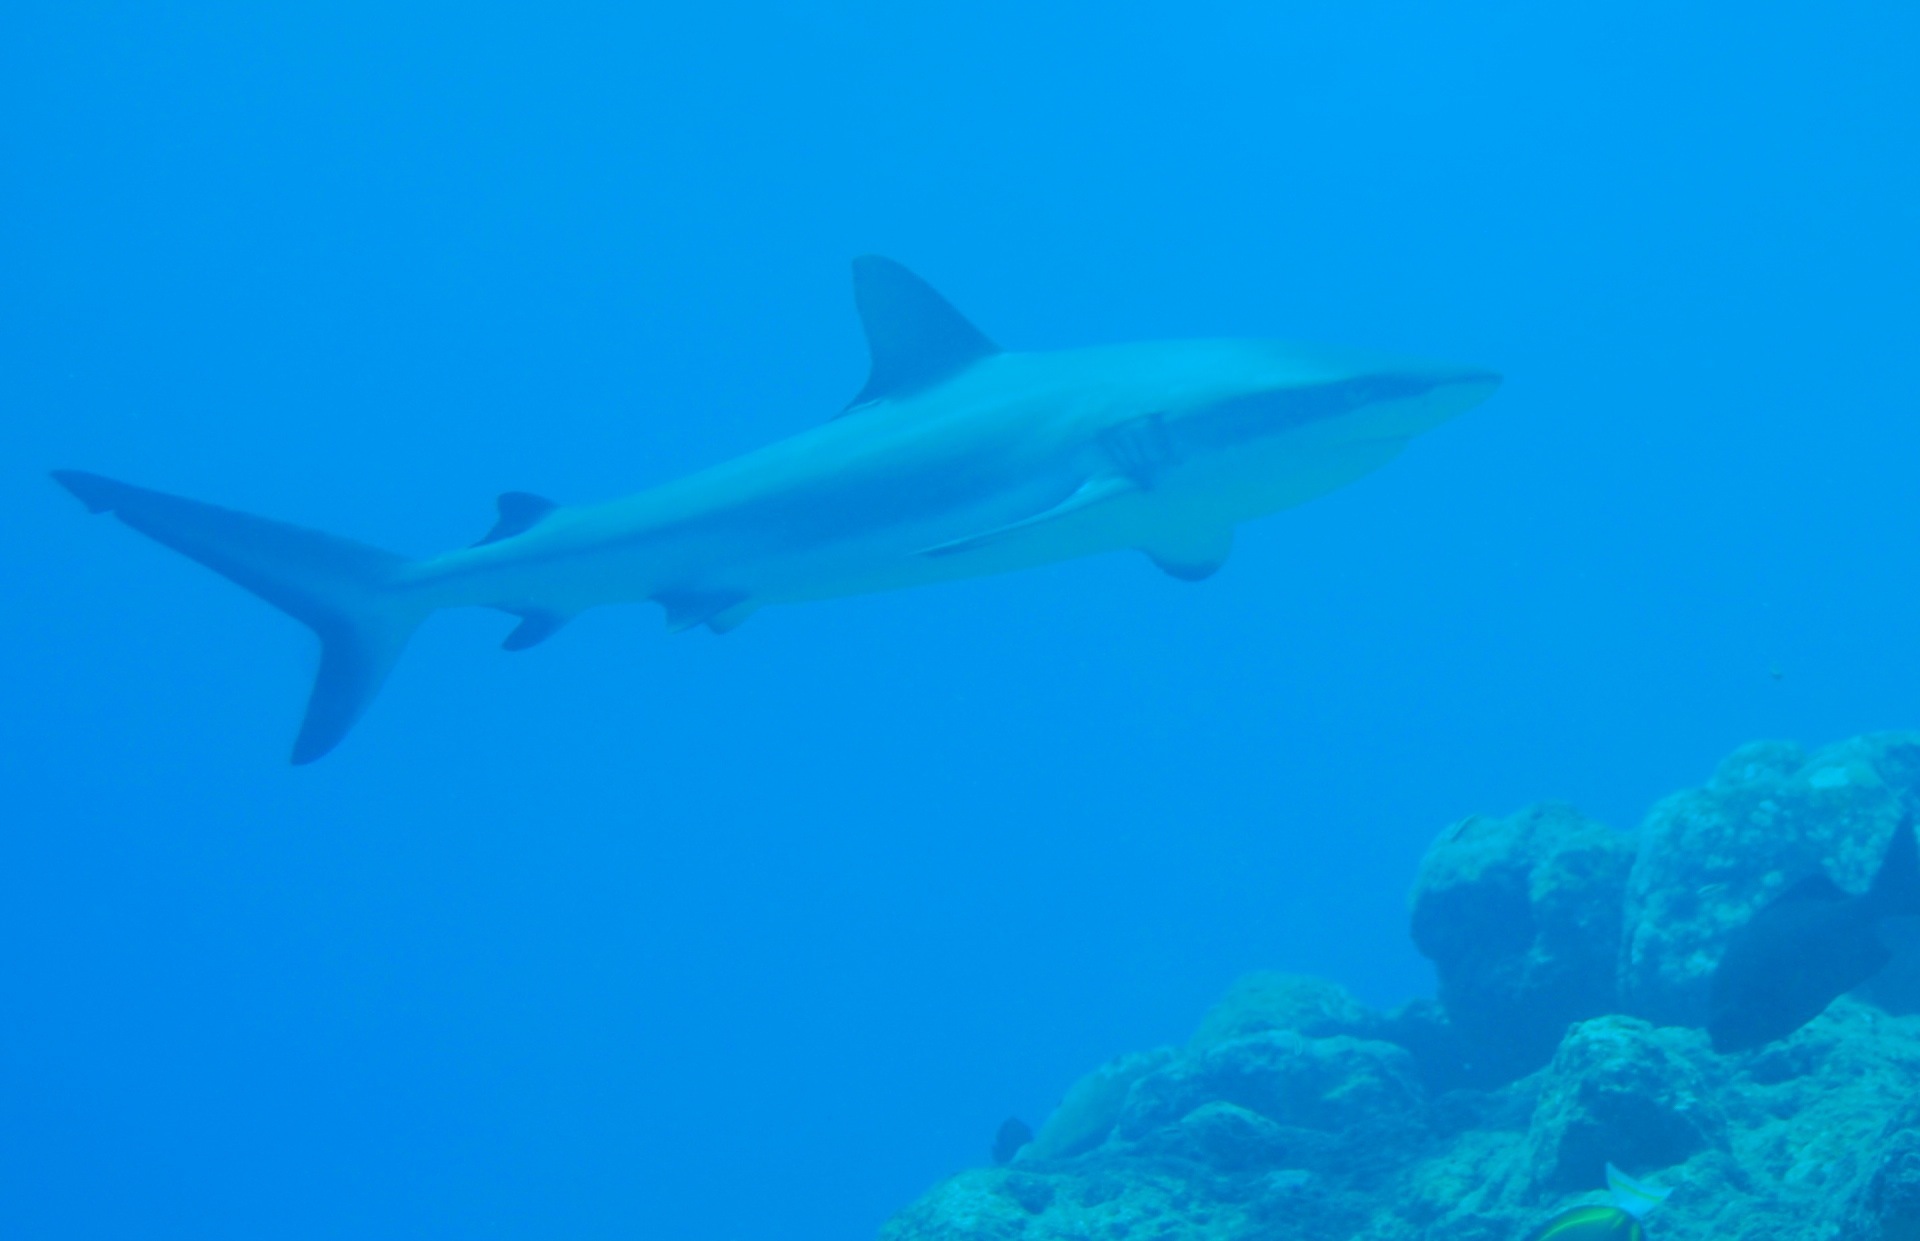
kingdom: Animalia
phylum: Chordata
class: Elasmobranchii
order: Carcharhiniformes
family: Carcharhinidae
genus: Carcharhinus
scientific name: Carcharhinus amblyrhynchos
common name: Grey reef shark
